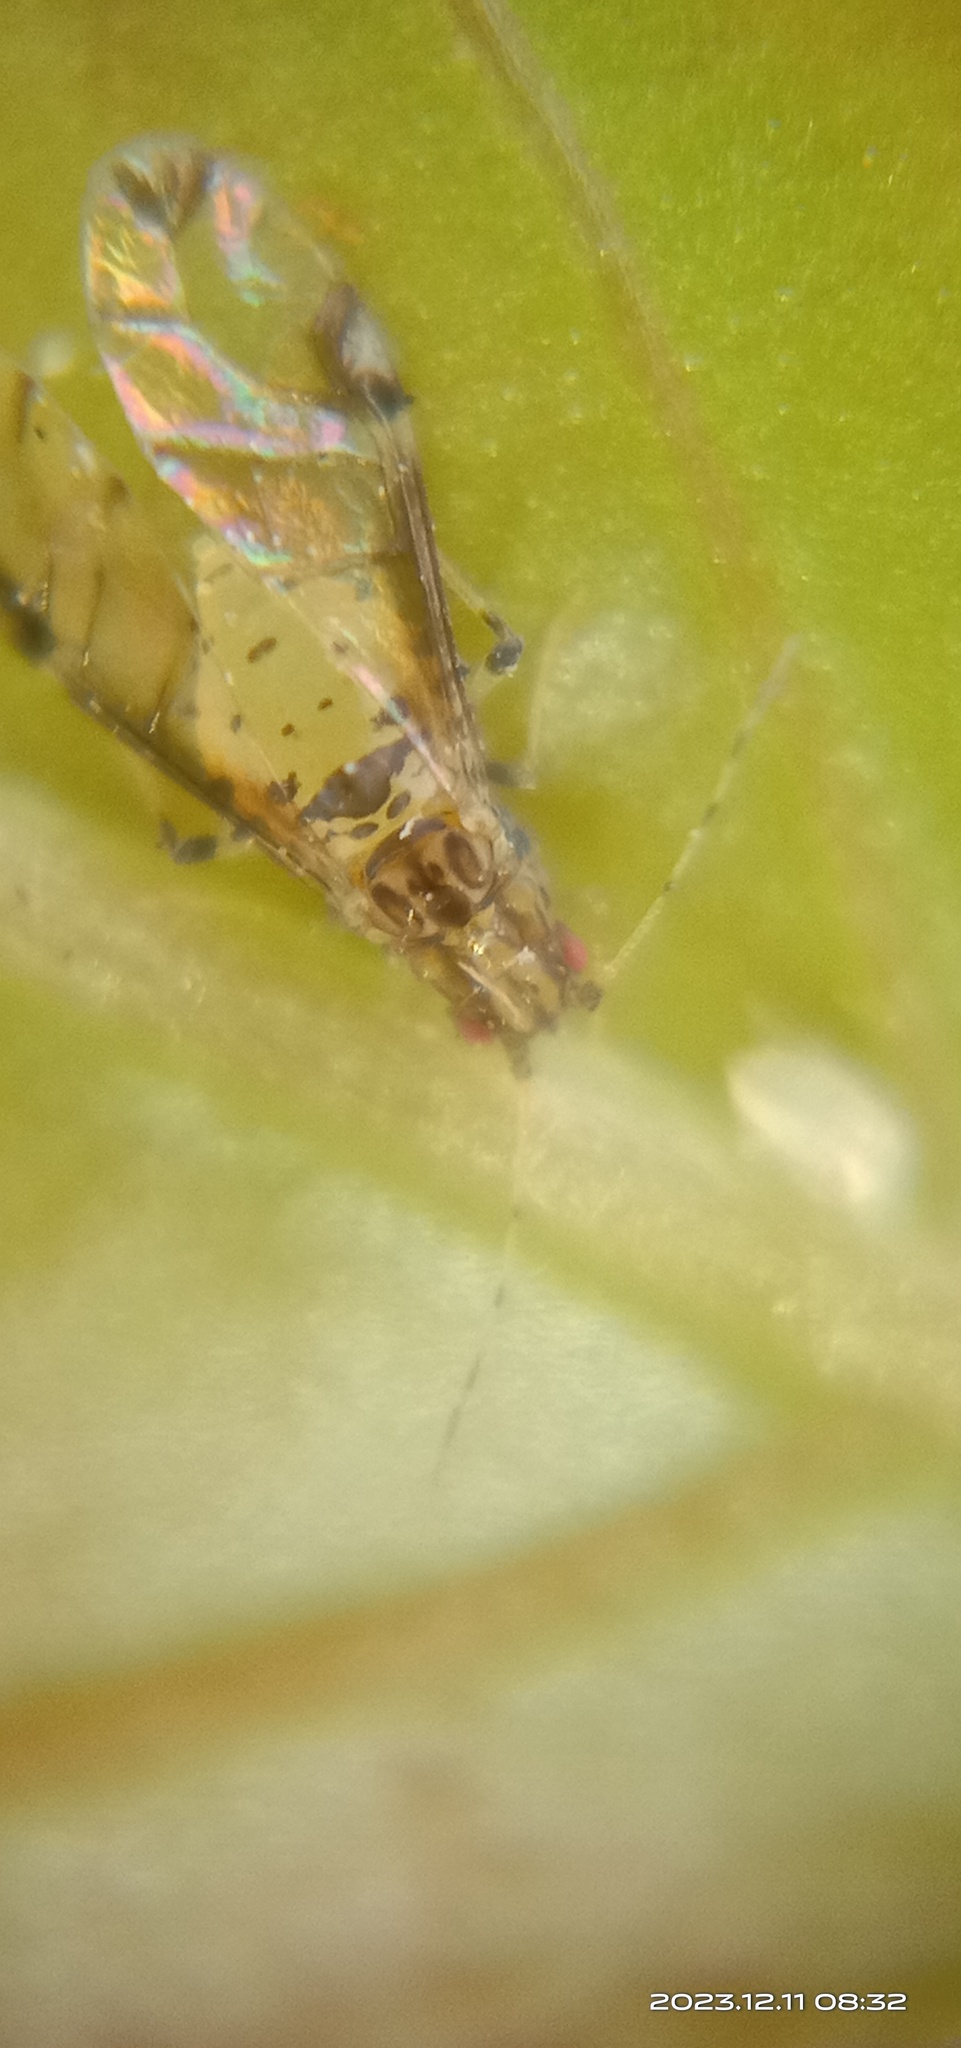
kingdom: Animalia
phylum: Arthropoda
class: Insecta
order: Hemiptera
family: Aphididae
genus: Sarucallis
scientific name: Sarucallis kahawaluokalani
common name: Crapemyrtle aphid
